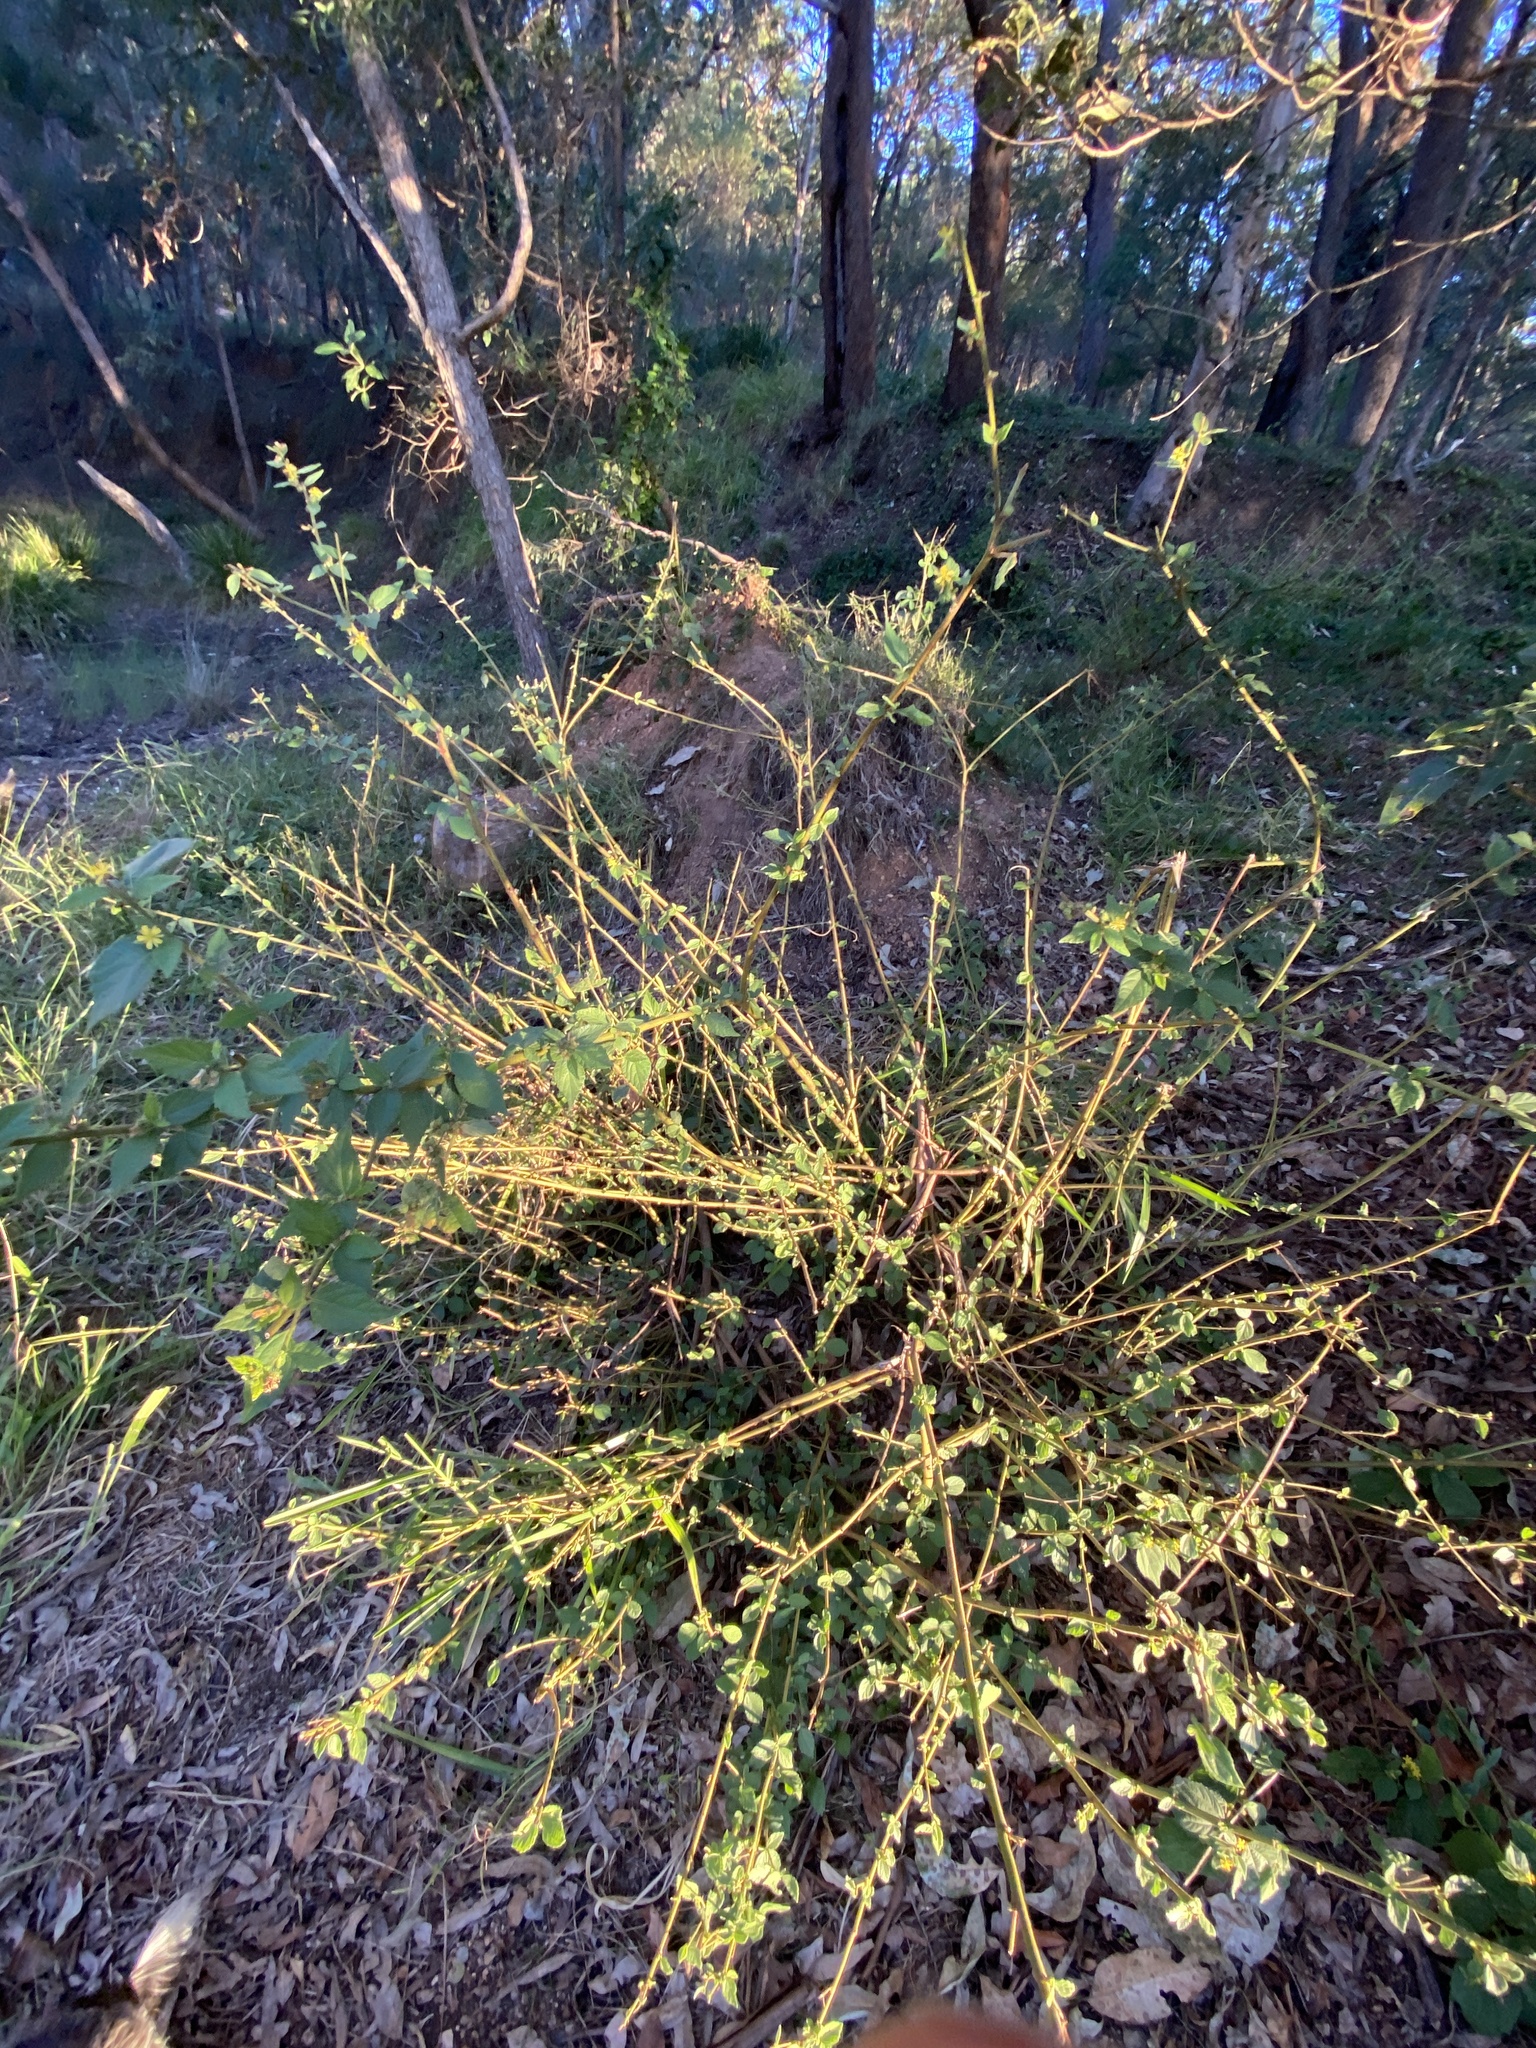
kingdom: Plantae
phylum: Tracheophyta
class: Magnoliopsida
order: Malvales
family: Malvaceae
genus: Triumfetta
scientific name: Triumfetta rhomboidea
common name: Diamond burbark
